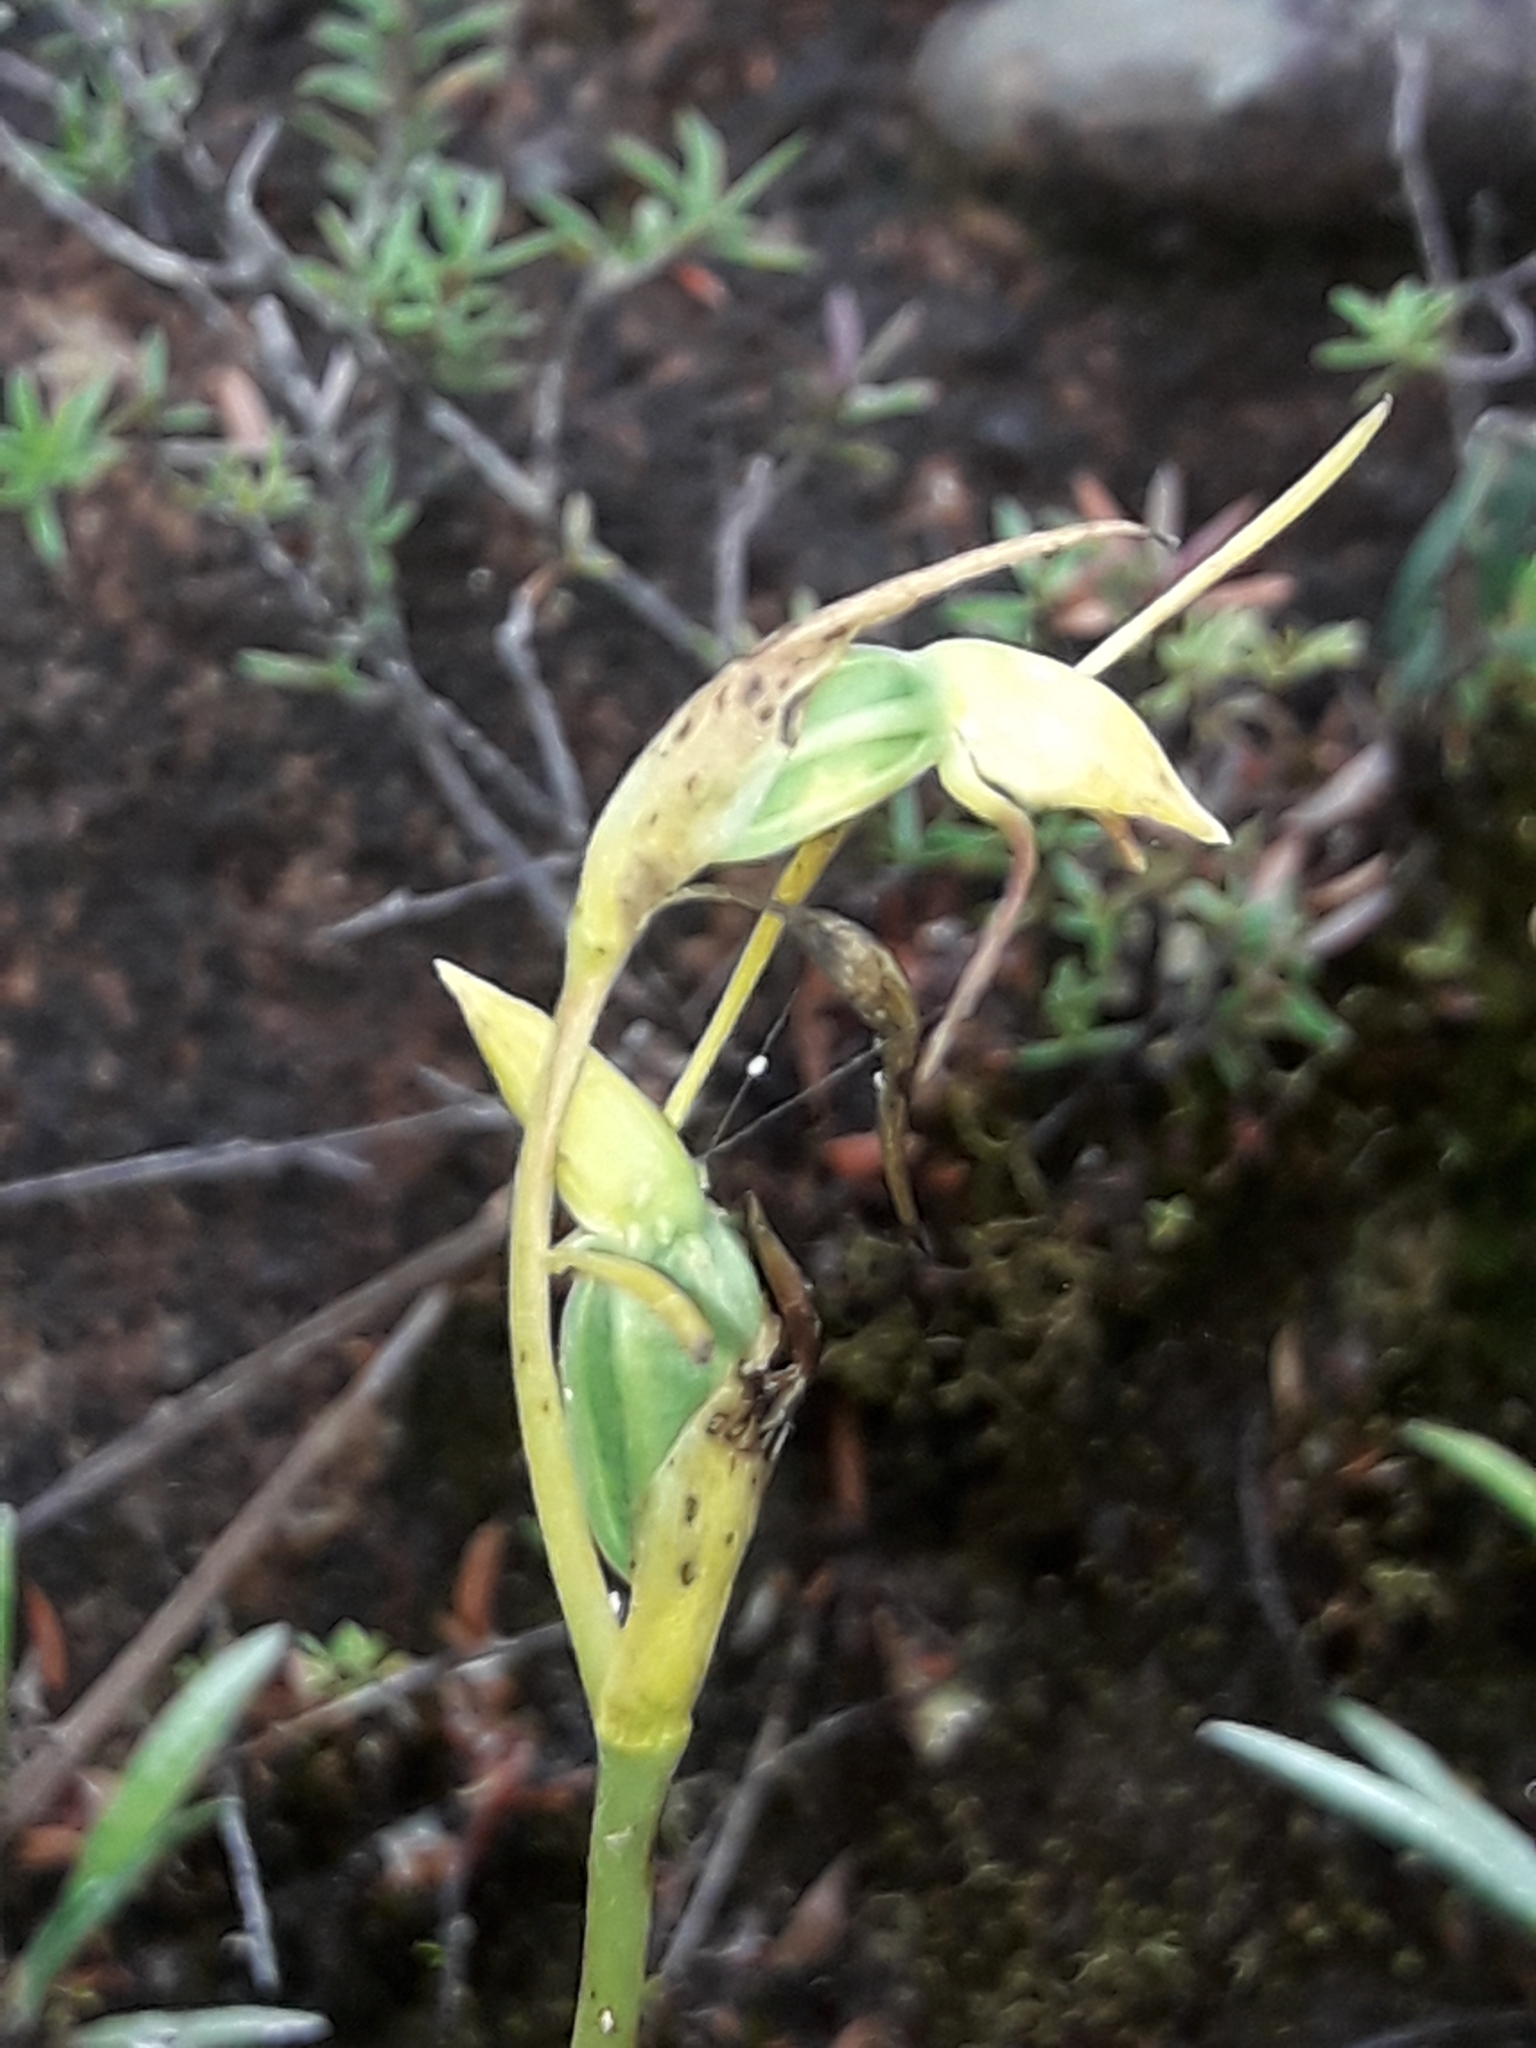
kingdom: Plantae
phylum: Tracheophyta
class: Liliopsida
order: Asparagales
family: Orchidaceae
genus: Orthoceras
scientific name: Orthoceras novae-zeelandiae
